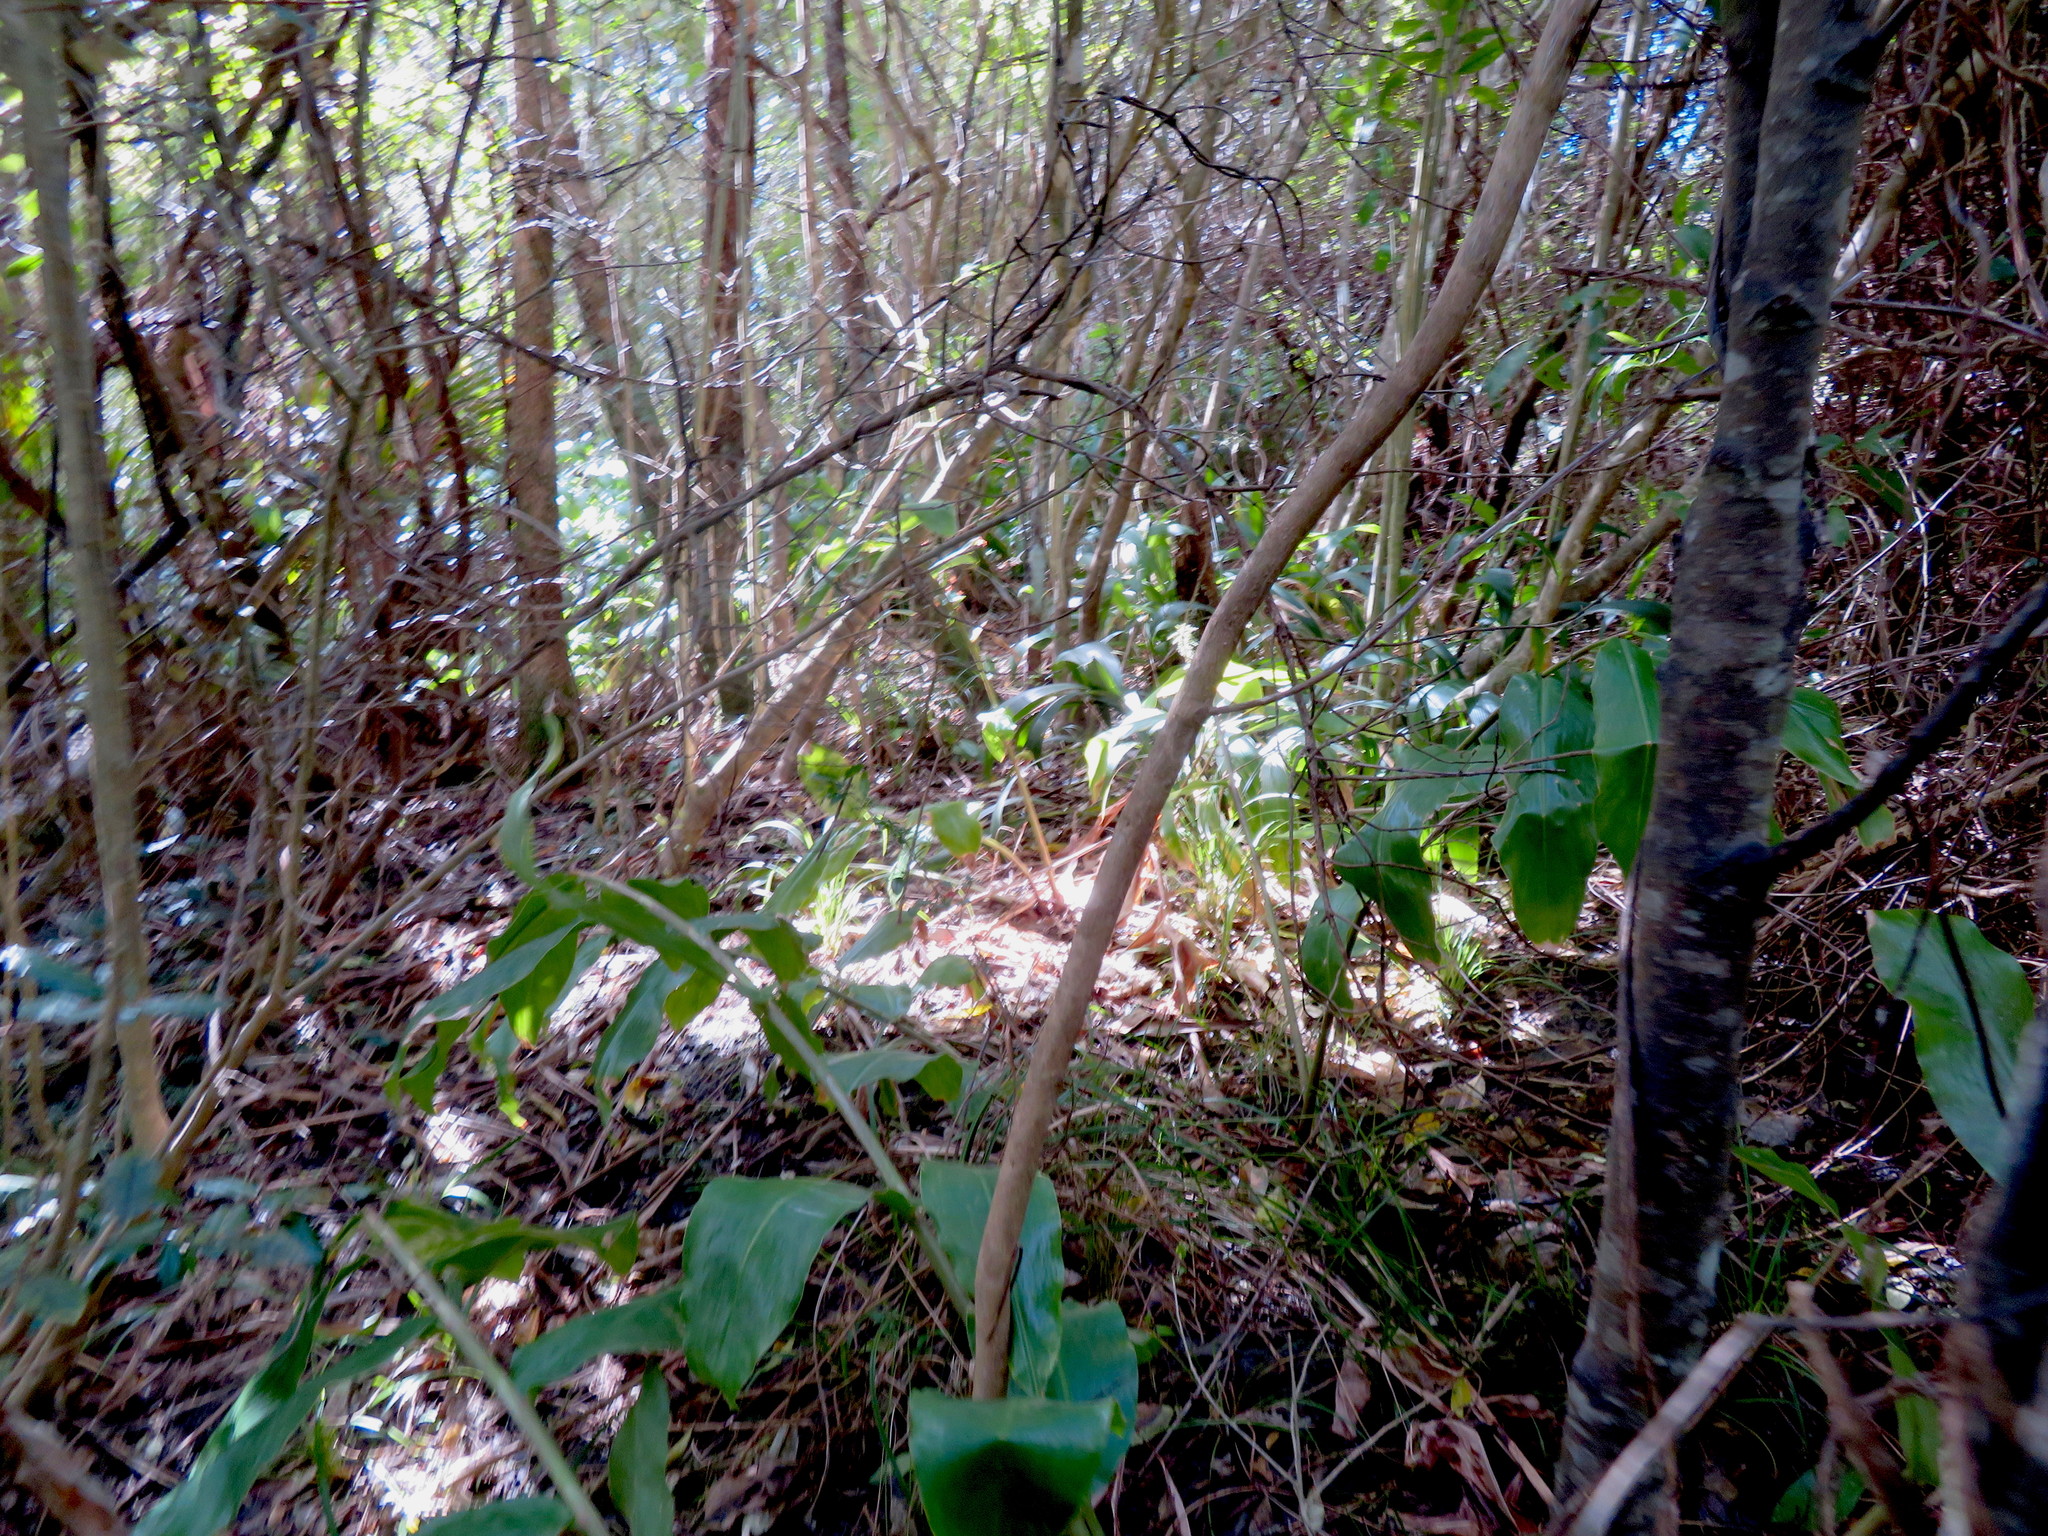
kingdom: Plantae
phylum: Tracheophyta
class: Liliopsida
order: Zingiberales
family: Zingiberaceae
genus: Hedychium
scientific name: Hedychium gardnerianum
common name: Himalayan ginger
